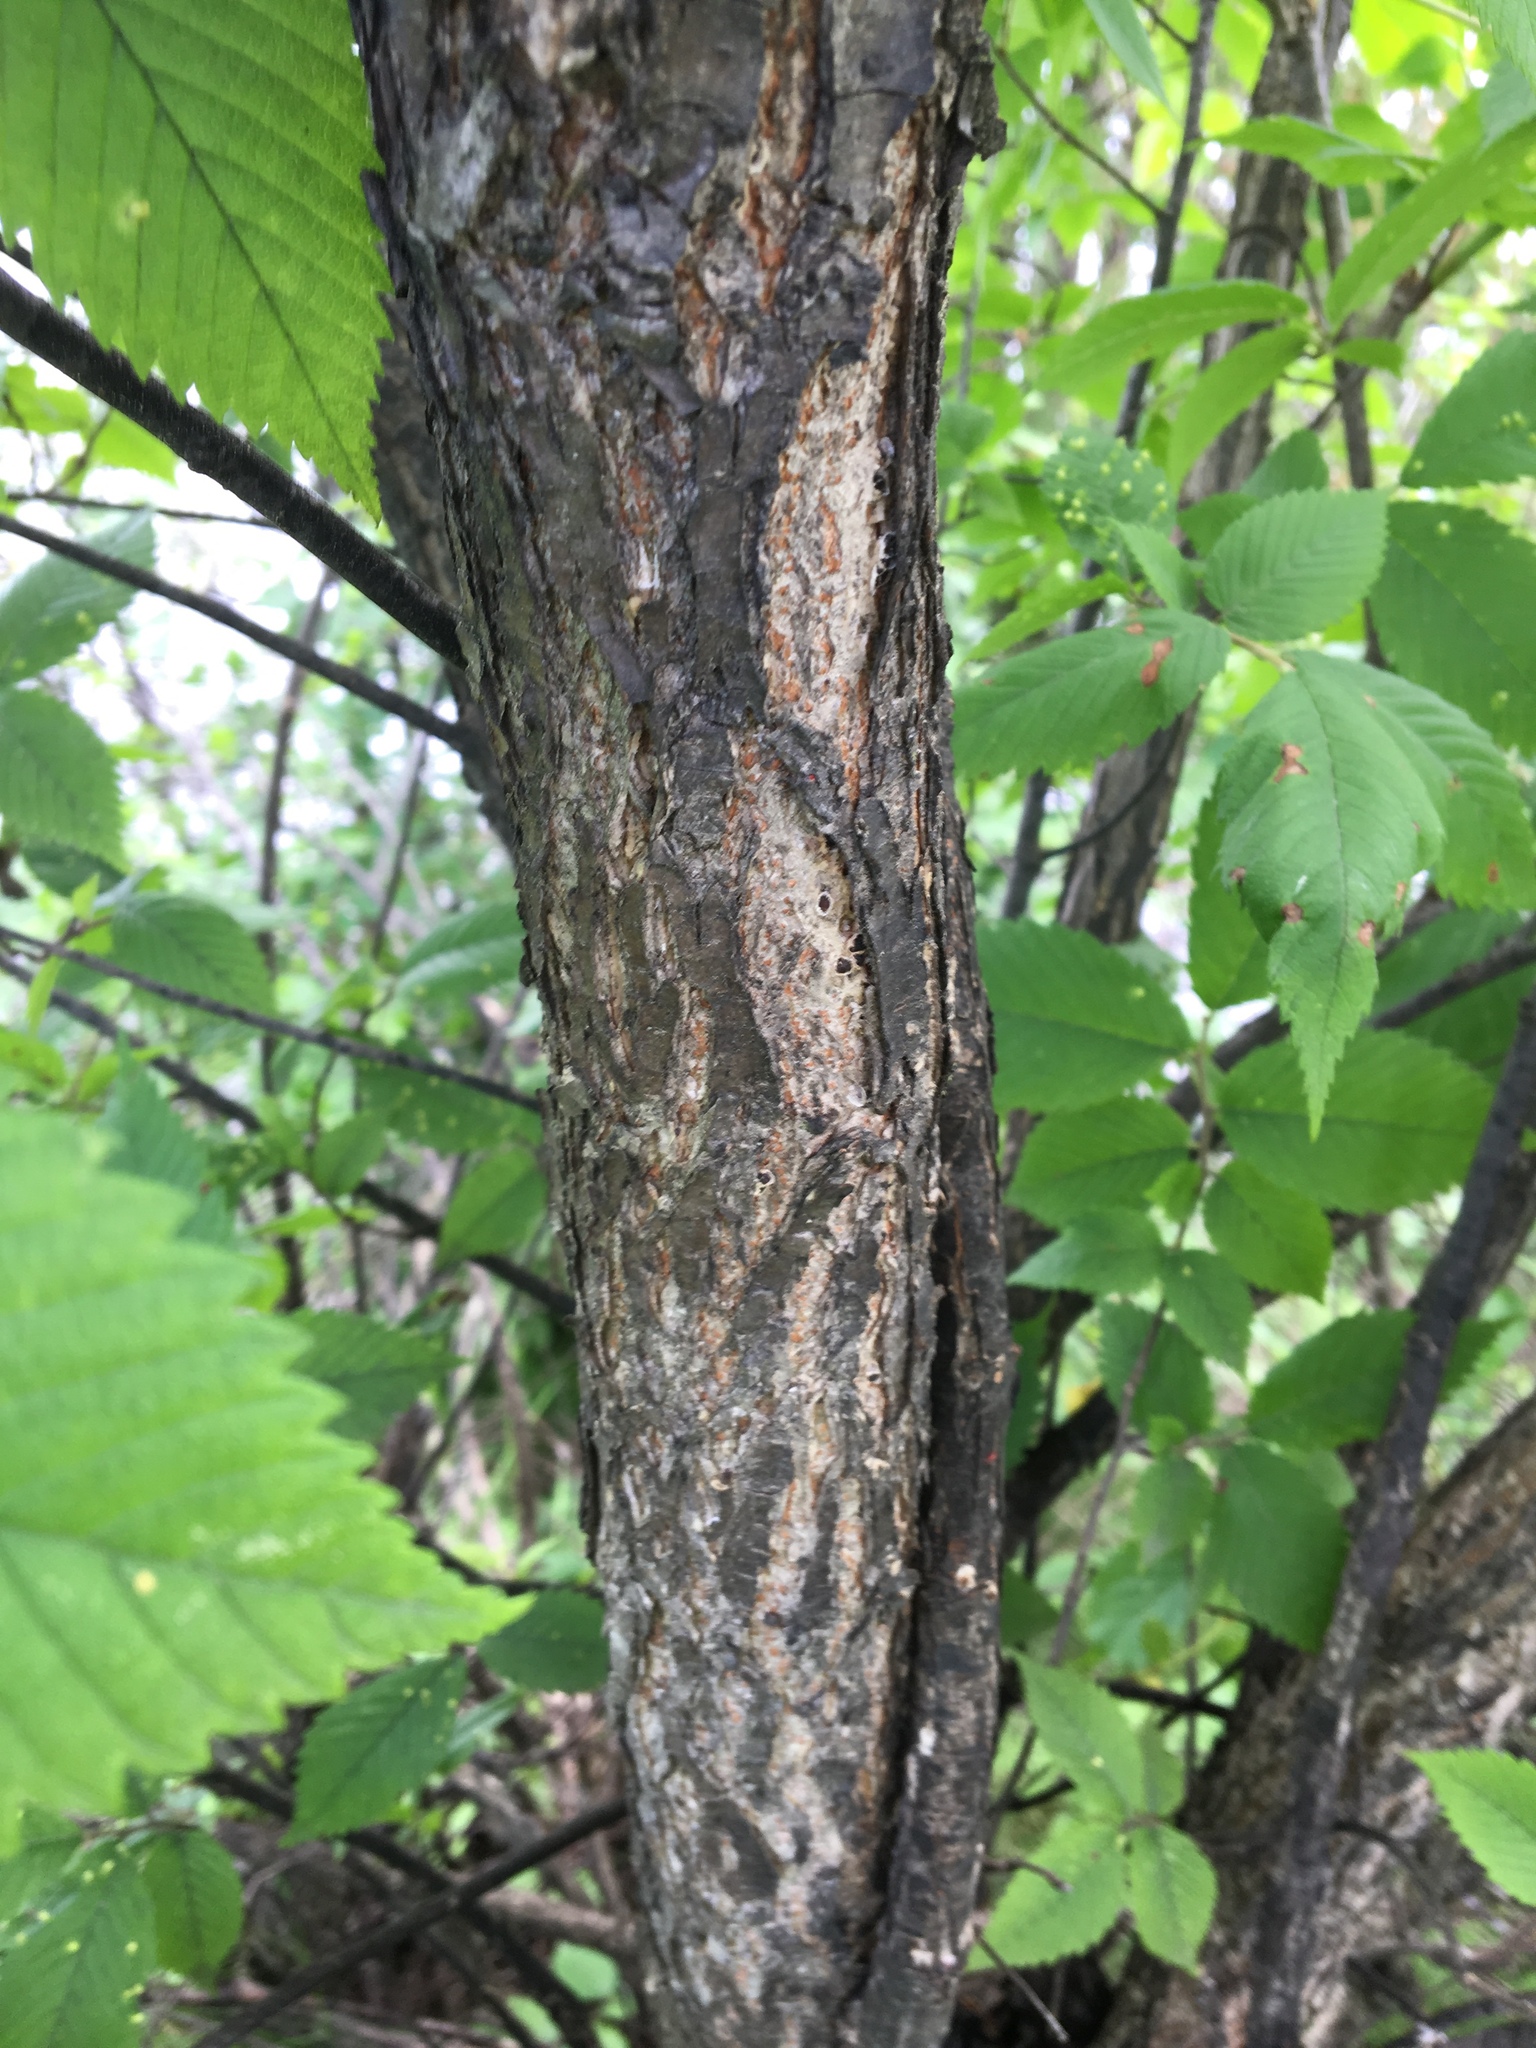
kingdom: Plantae
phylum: Tracheophyta
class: Magnoliopsida
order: Rosales
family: Ulmaceae
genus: Ulmus
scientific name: Ulmus americana
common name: American elm
